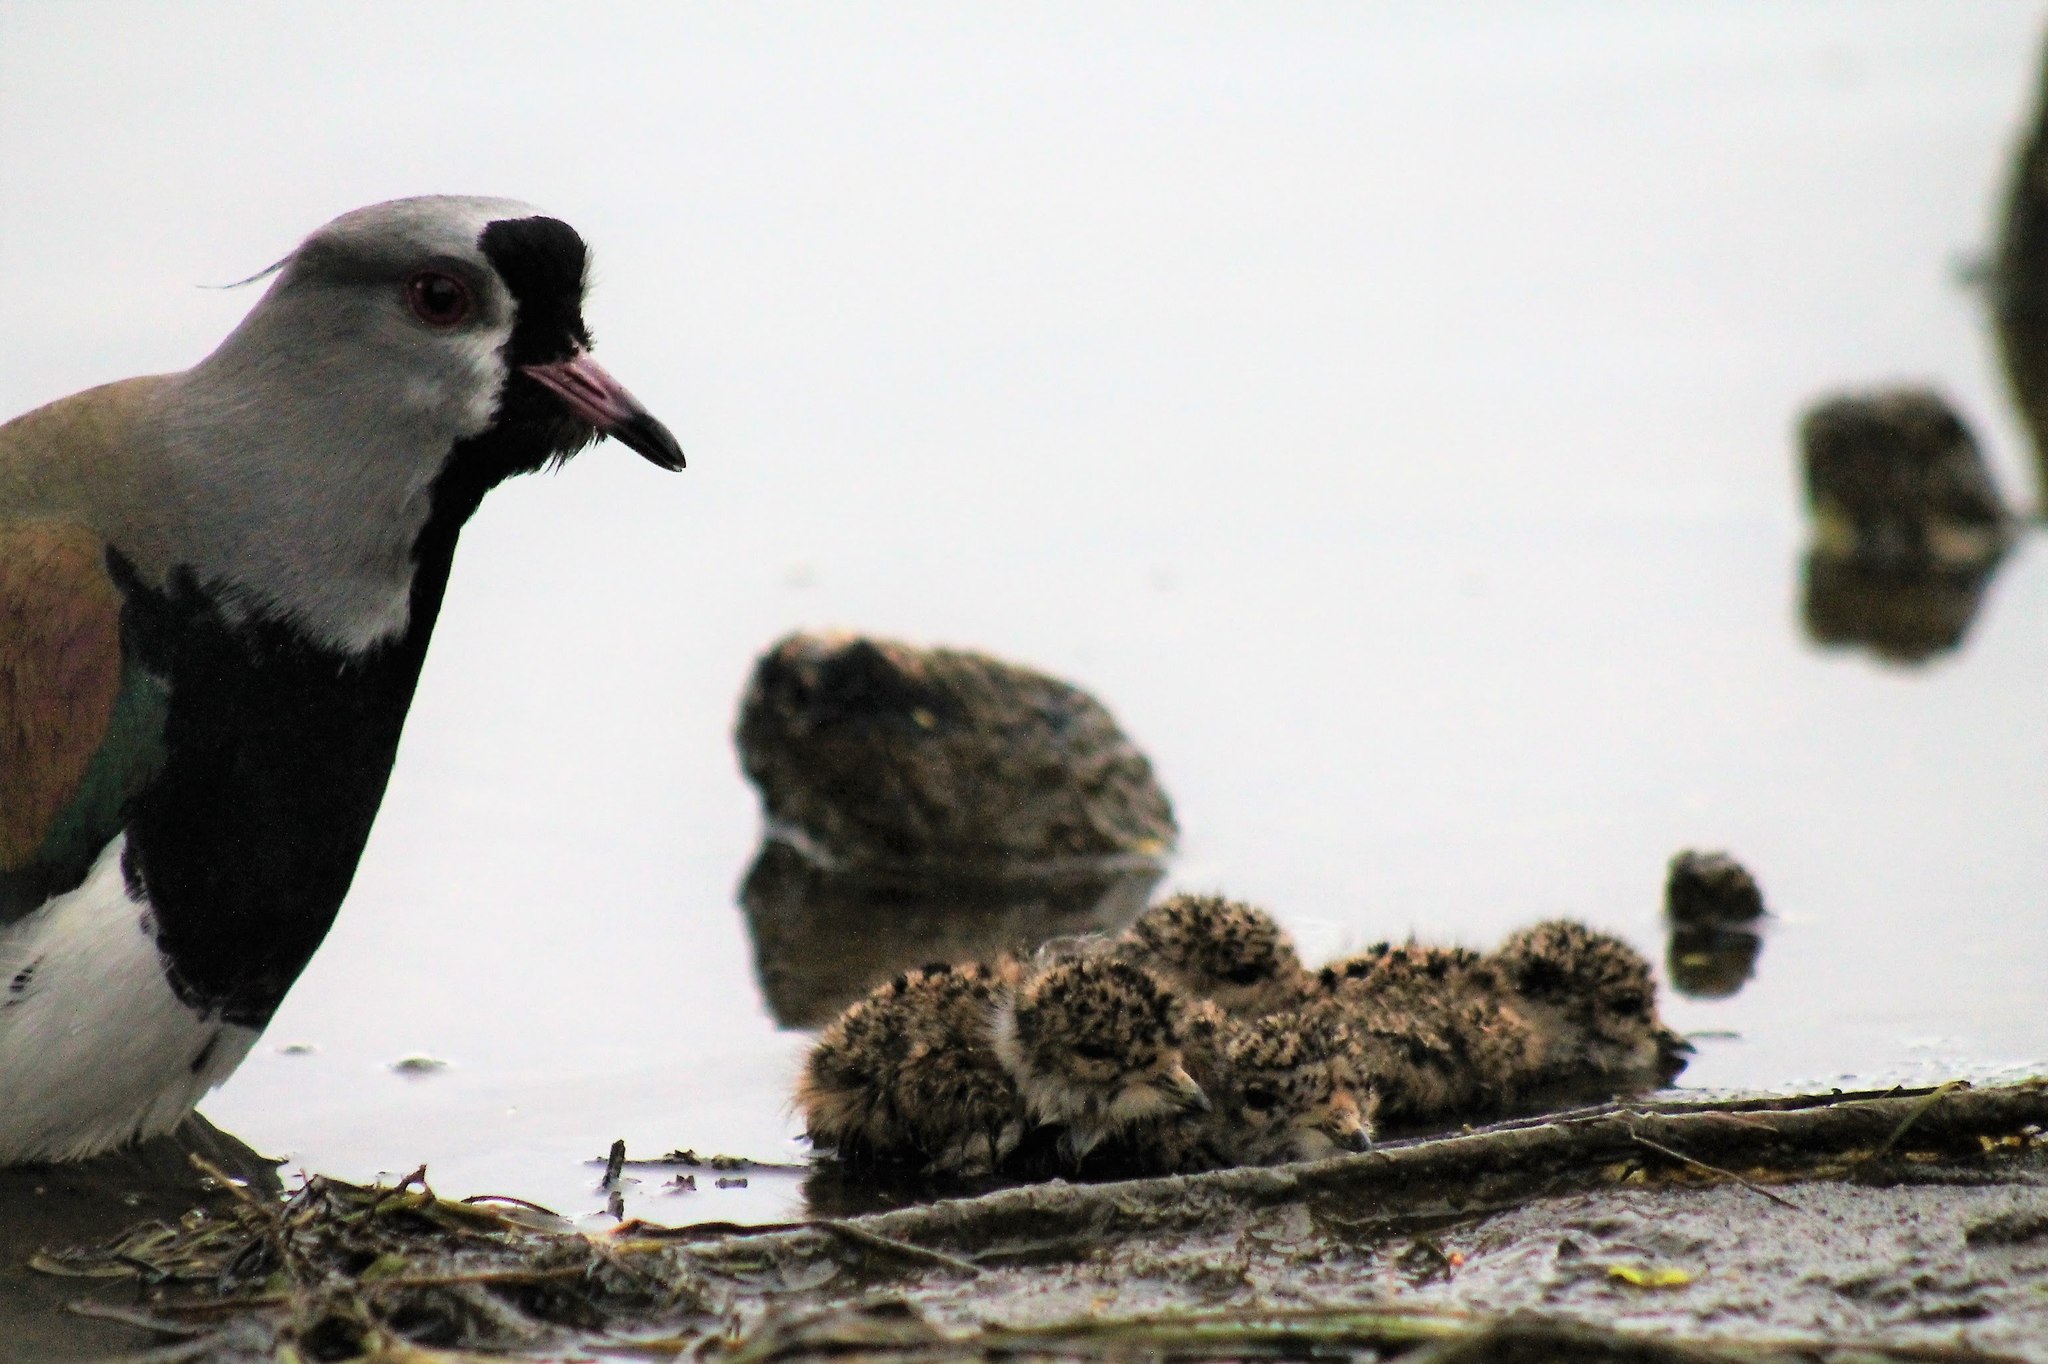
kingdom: Animalia
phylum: Chordata
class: Aves
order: Charadriiformes
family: Charadriidae
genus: Vanellus
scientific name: Vanellus chilensis
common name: Southern lapwing
